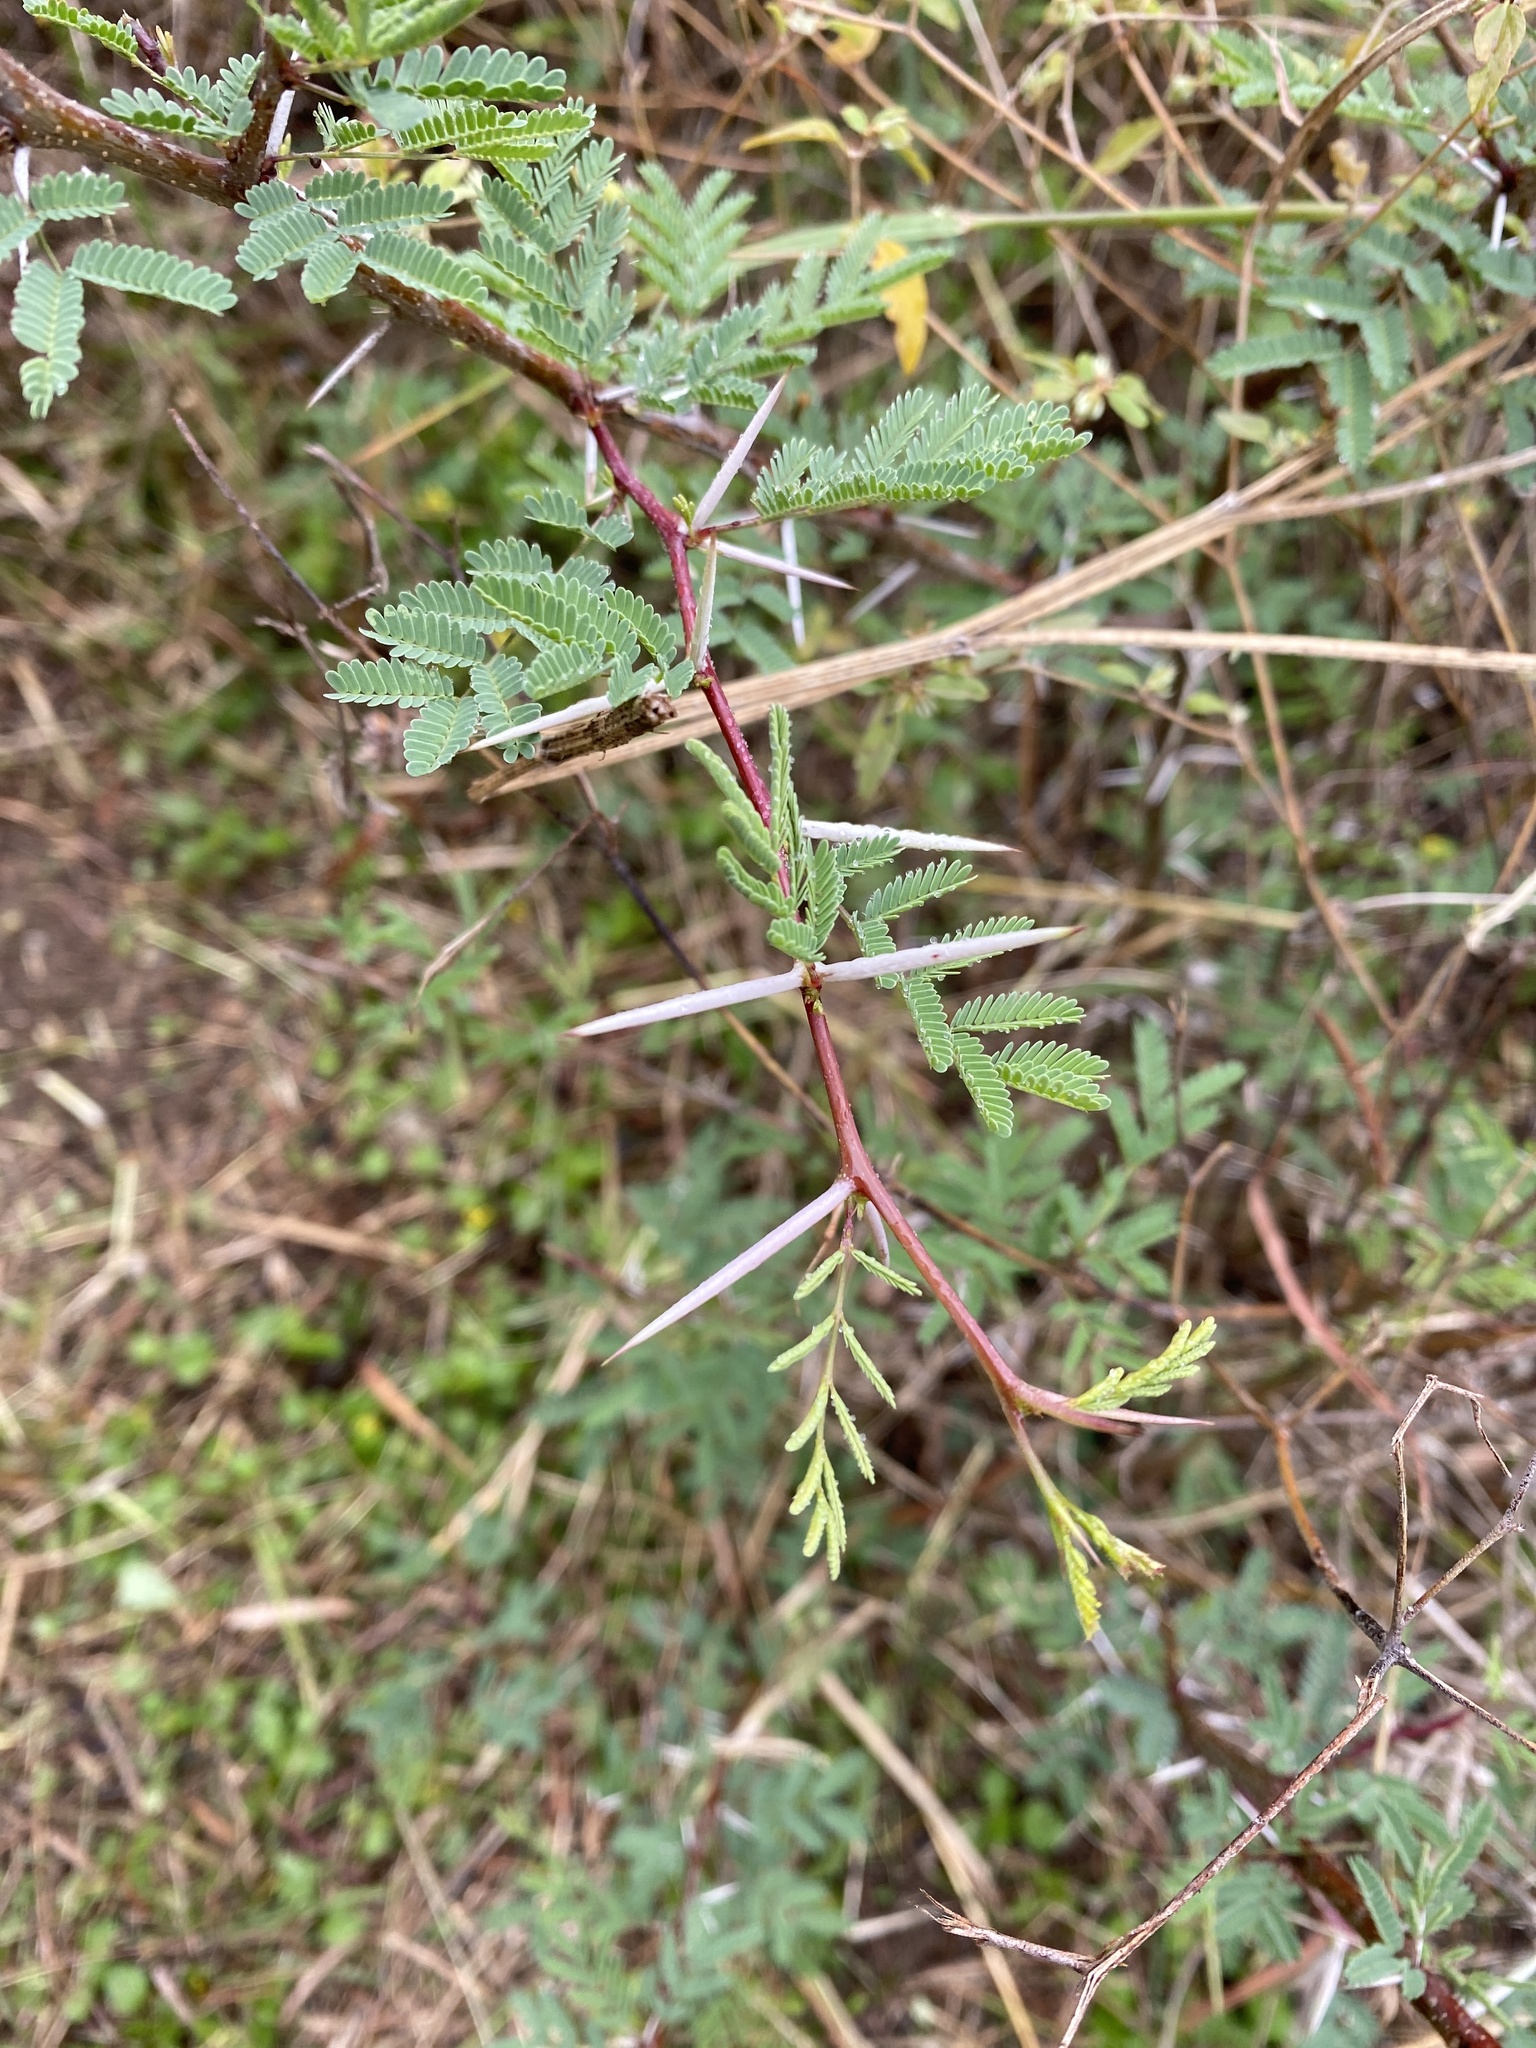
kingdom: Plantae
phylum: Tracheophyta
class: Magnoliopsida
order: Fabales
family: Fabaceae
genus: Vachellia
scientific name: Vachellia farnesiana
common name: Sweet acacia
